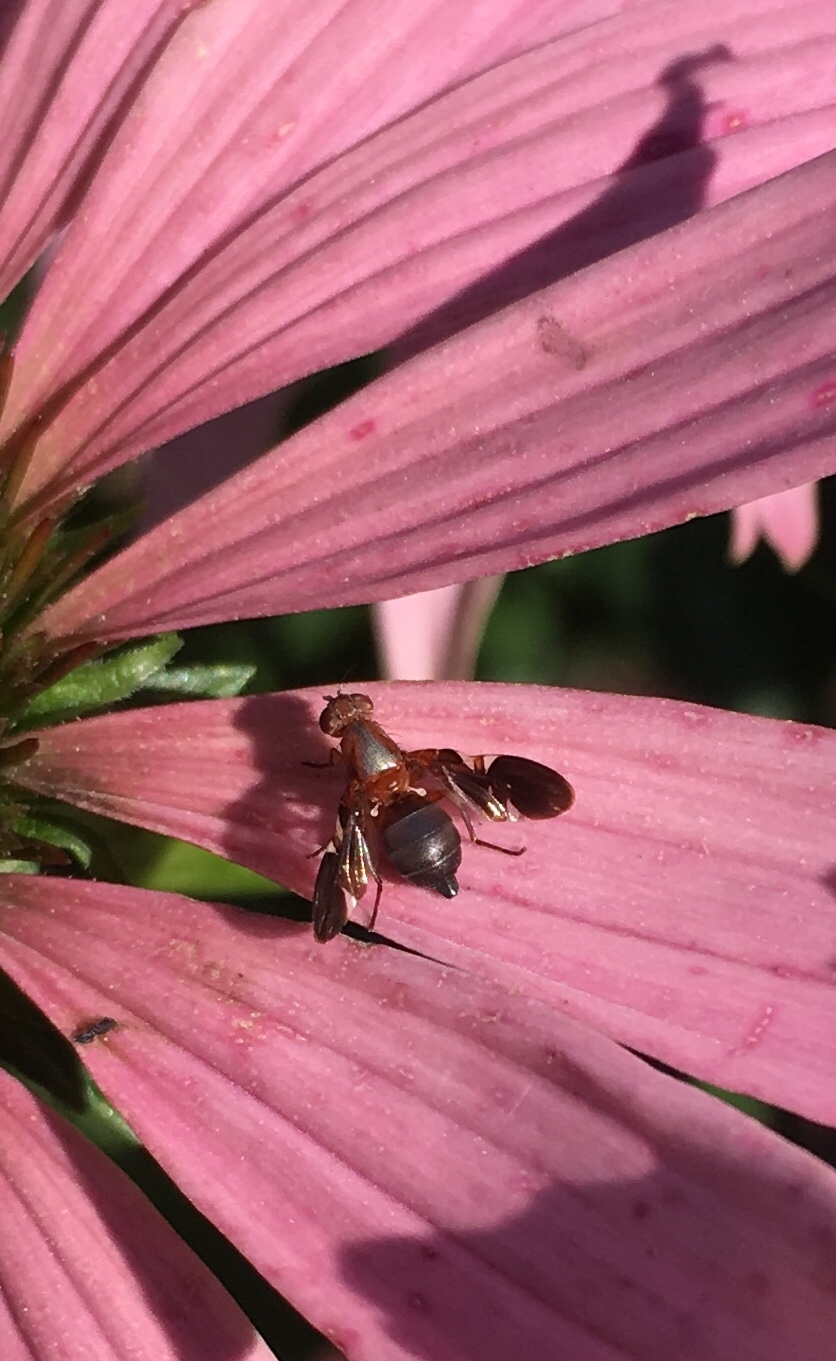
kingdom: Animalia
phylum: Arthropoda
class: Insecta
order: Diptera
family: Ulidiidae
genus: Delphinia
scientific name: Delphinia picta
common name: Common picture-winged fly
